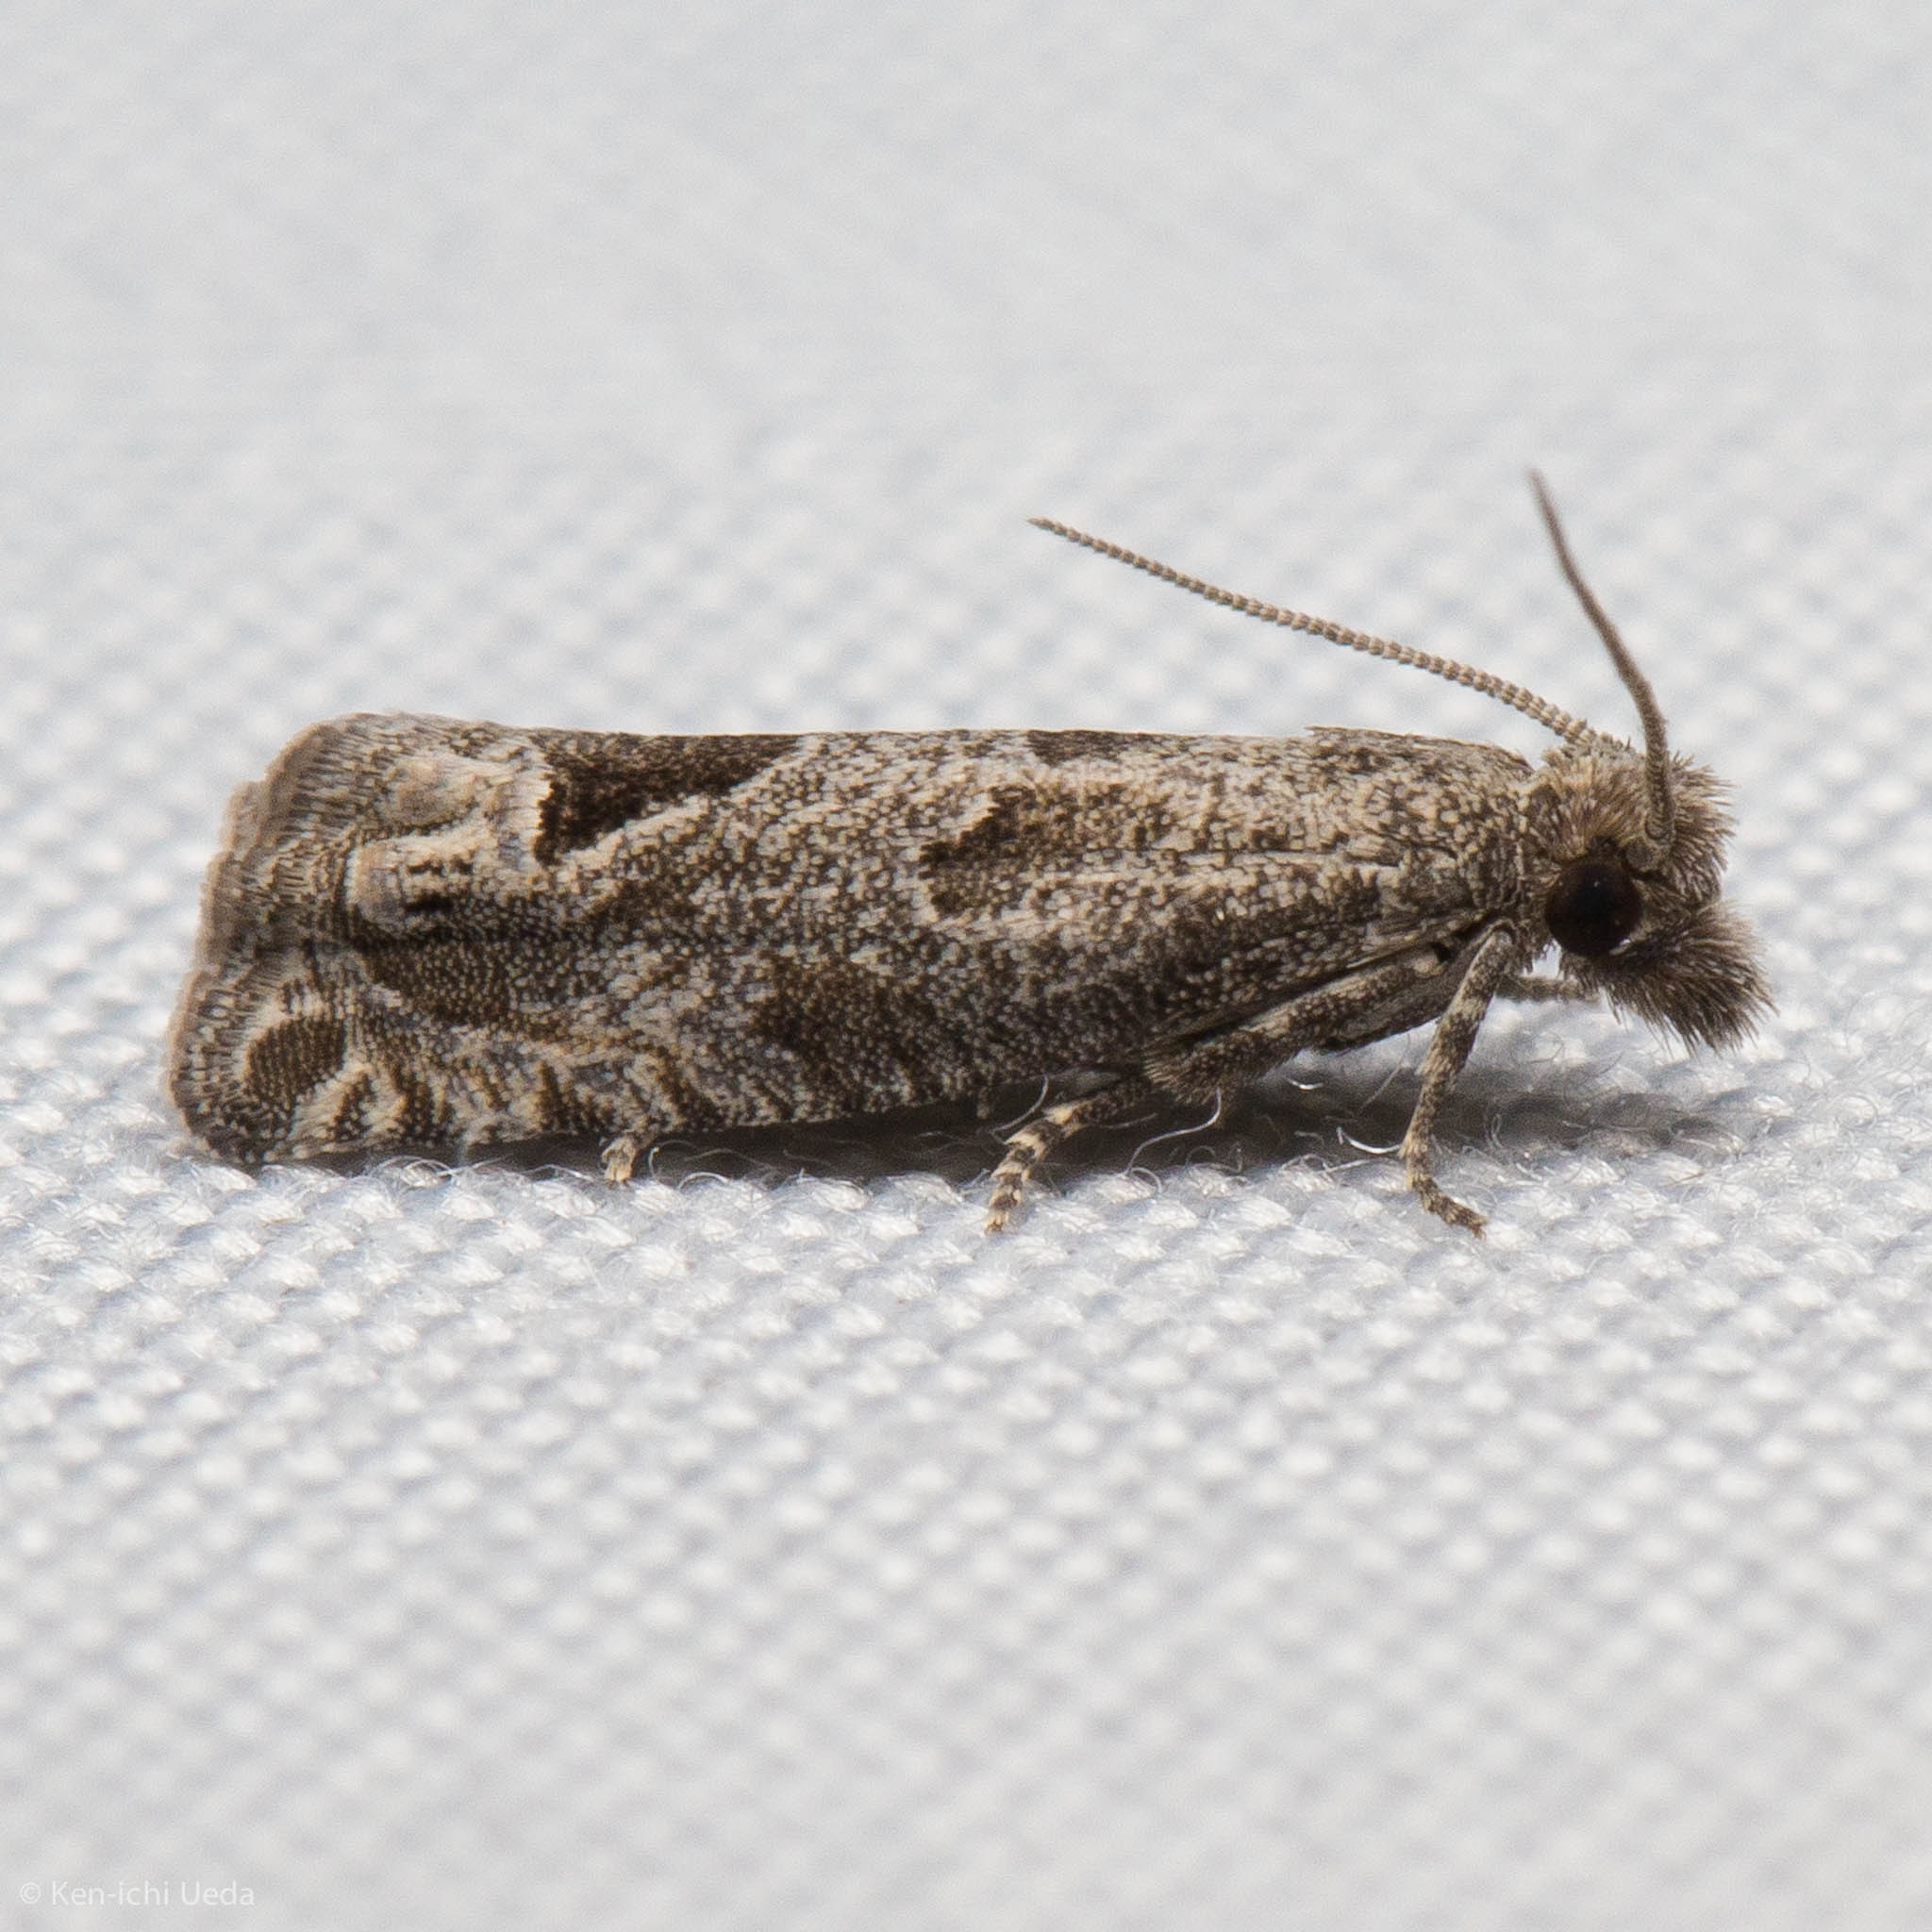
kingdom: Animalia
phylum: Arthropoda
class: Insecta
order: Lepidoptera
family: Tortricidae
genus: Pelochrista
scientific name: Pelochrista persolita
